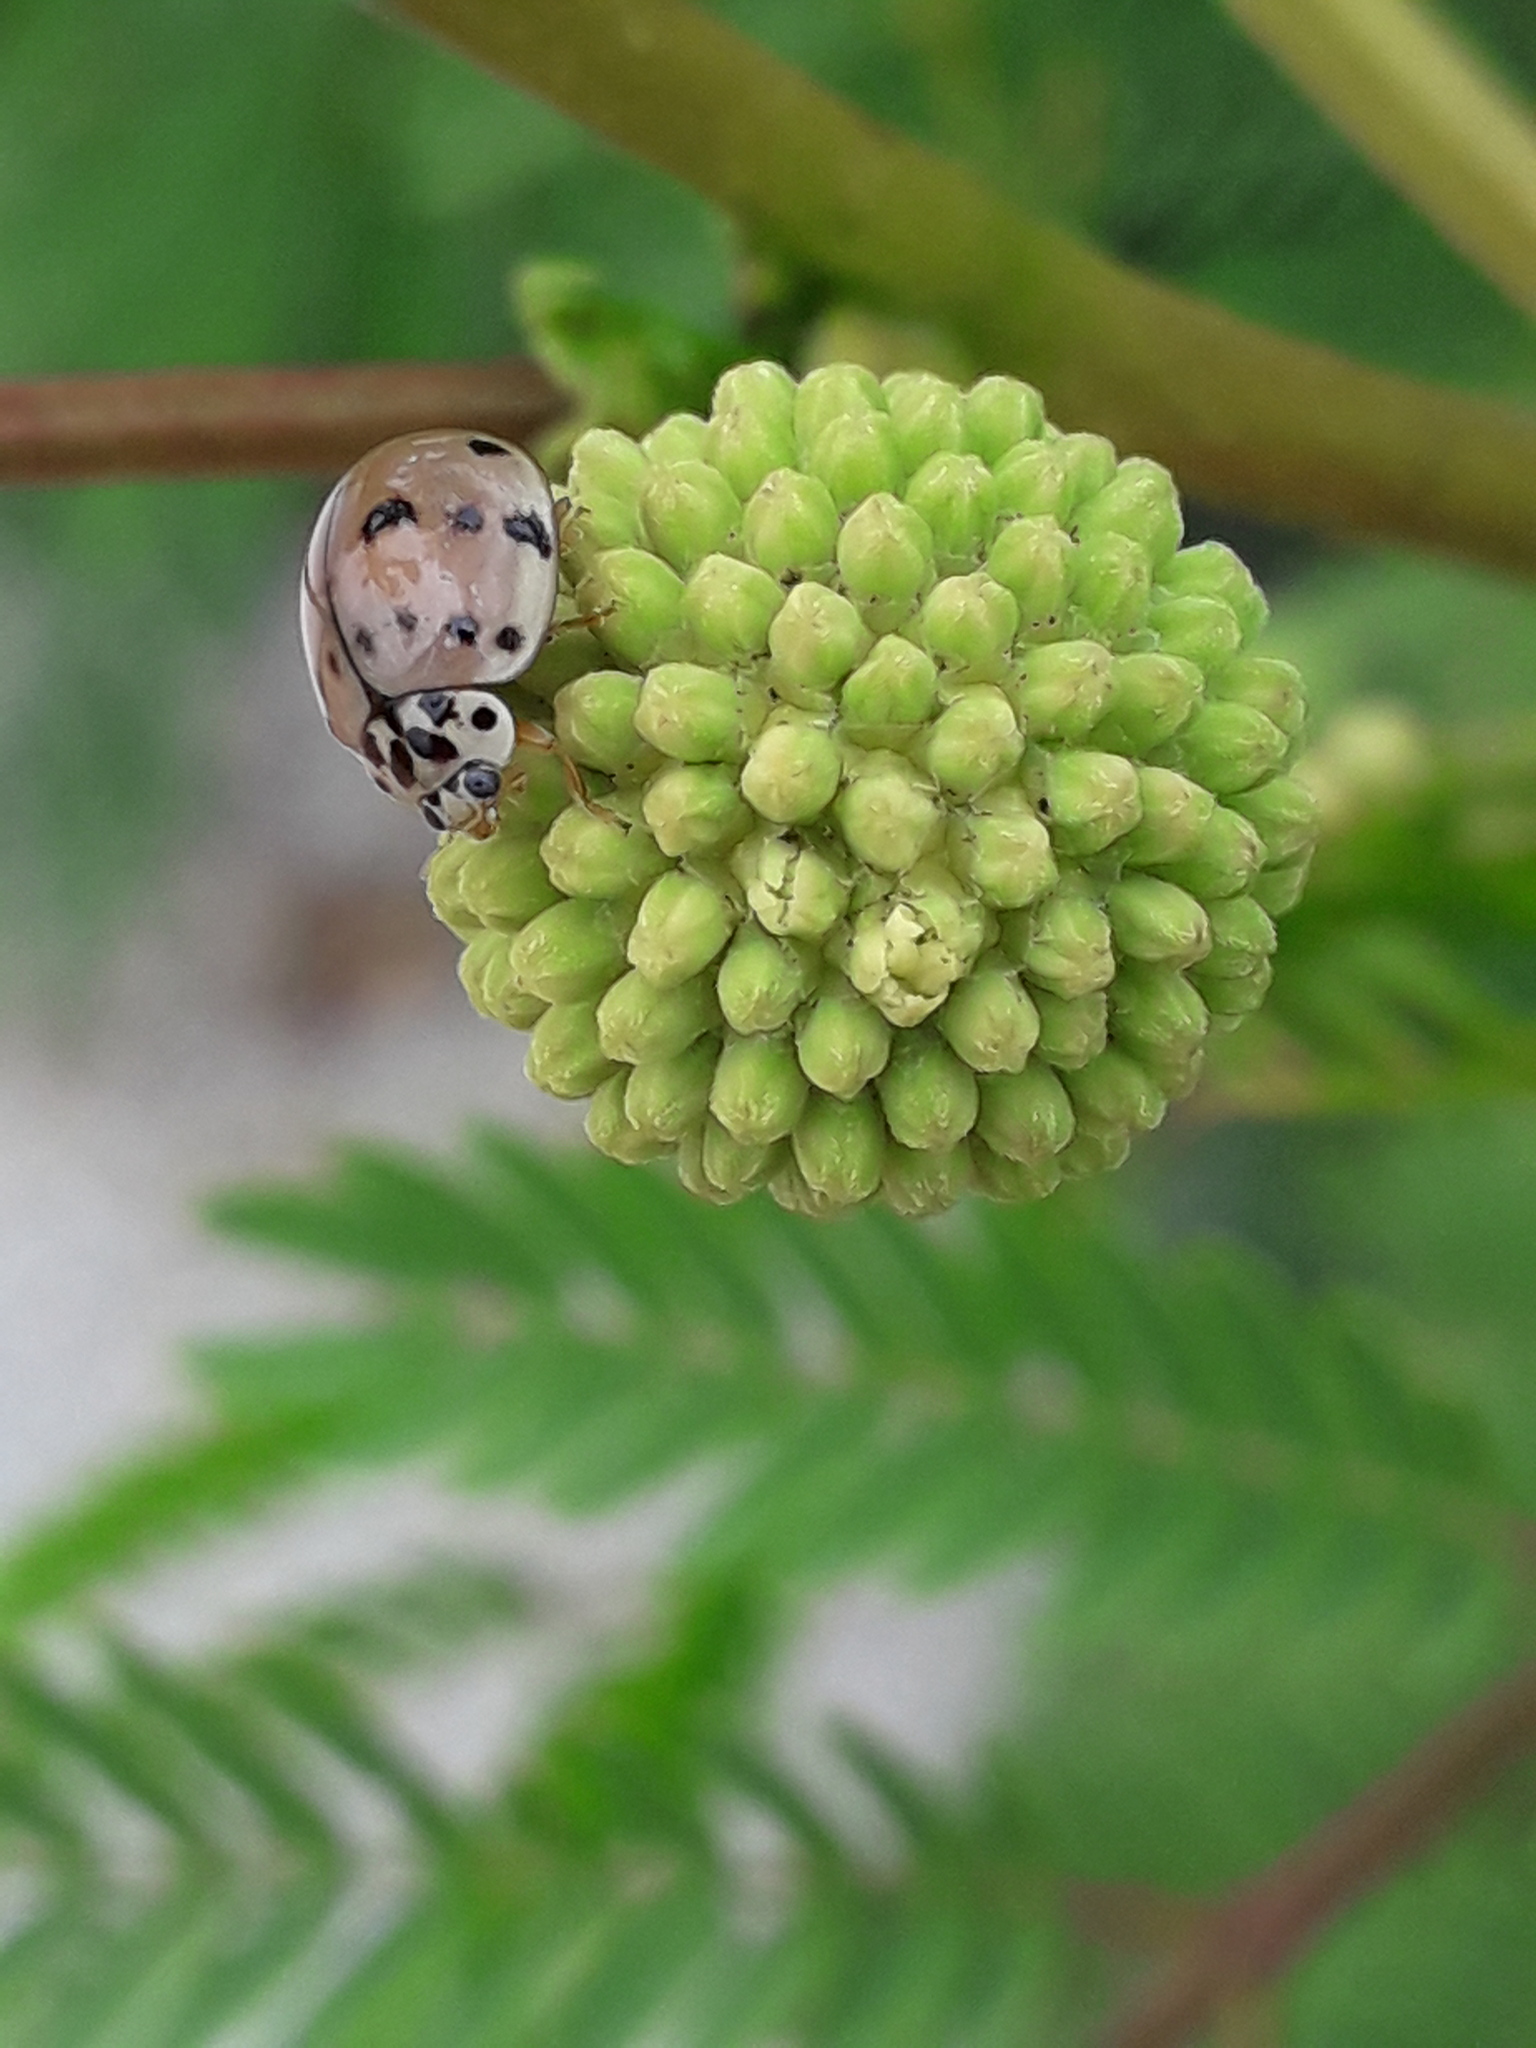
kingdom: Animalia
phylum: Arthropoda
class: Insecta
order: Coleoptera
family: Coccinellidae
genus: Olla
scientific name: Olla v-nigrum
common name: Ashy gray lady beetle
